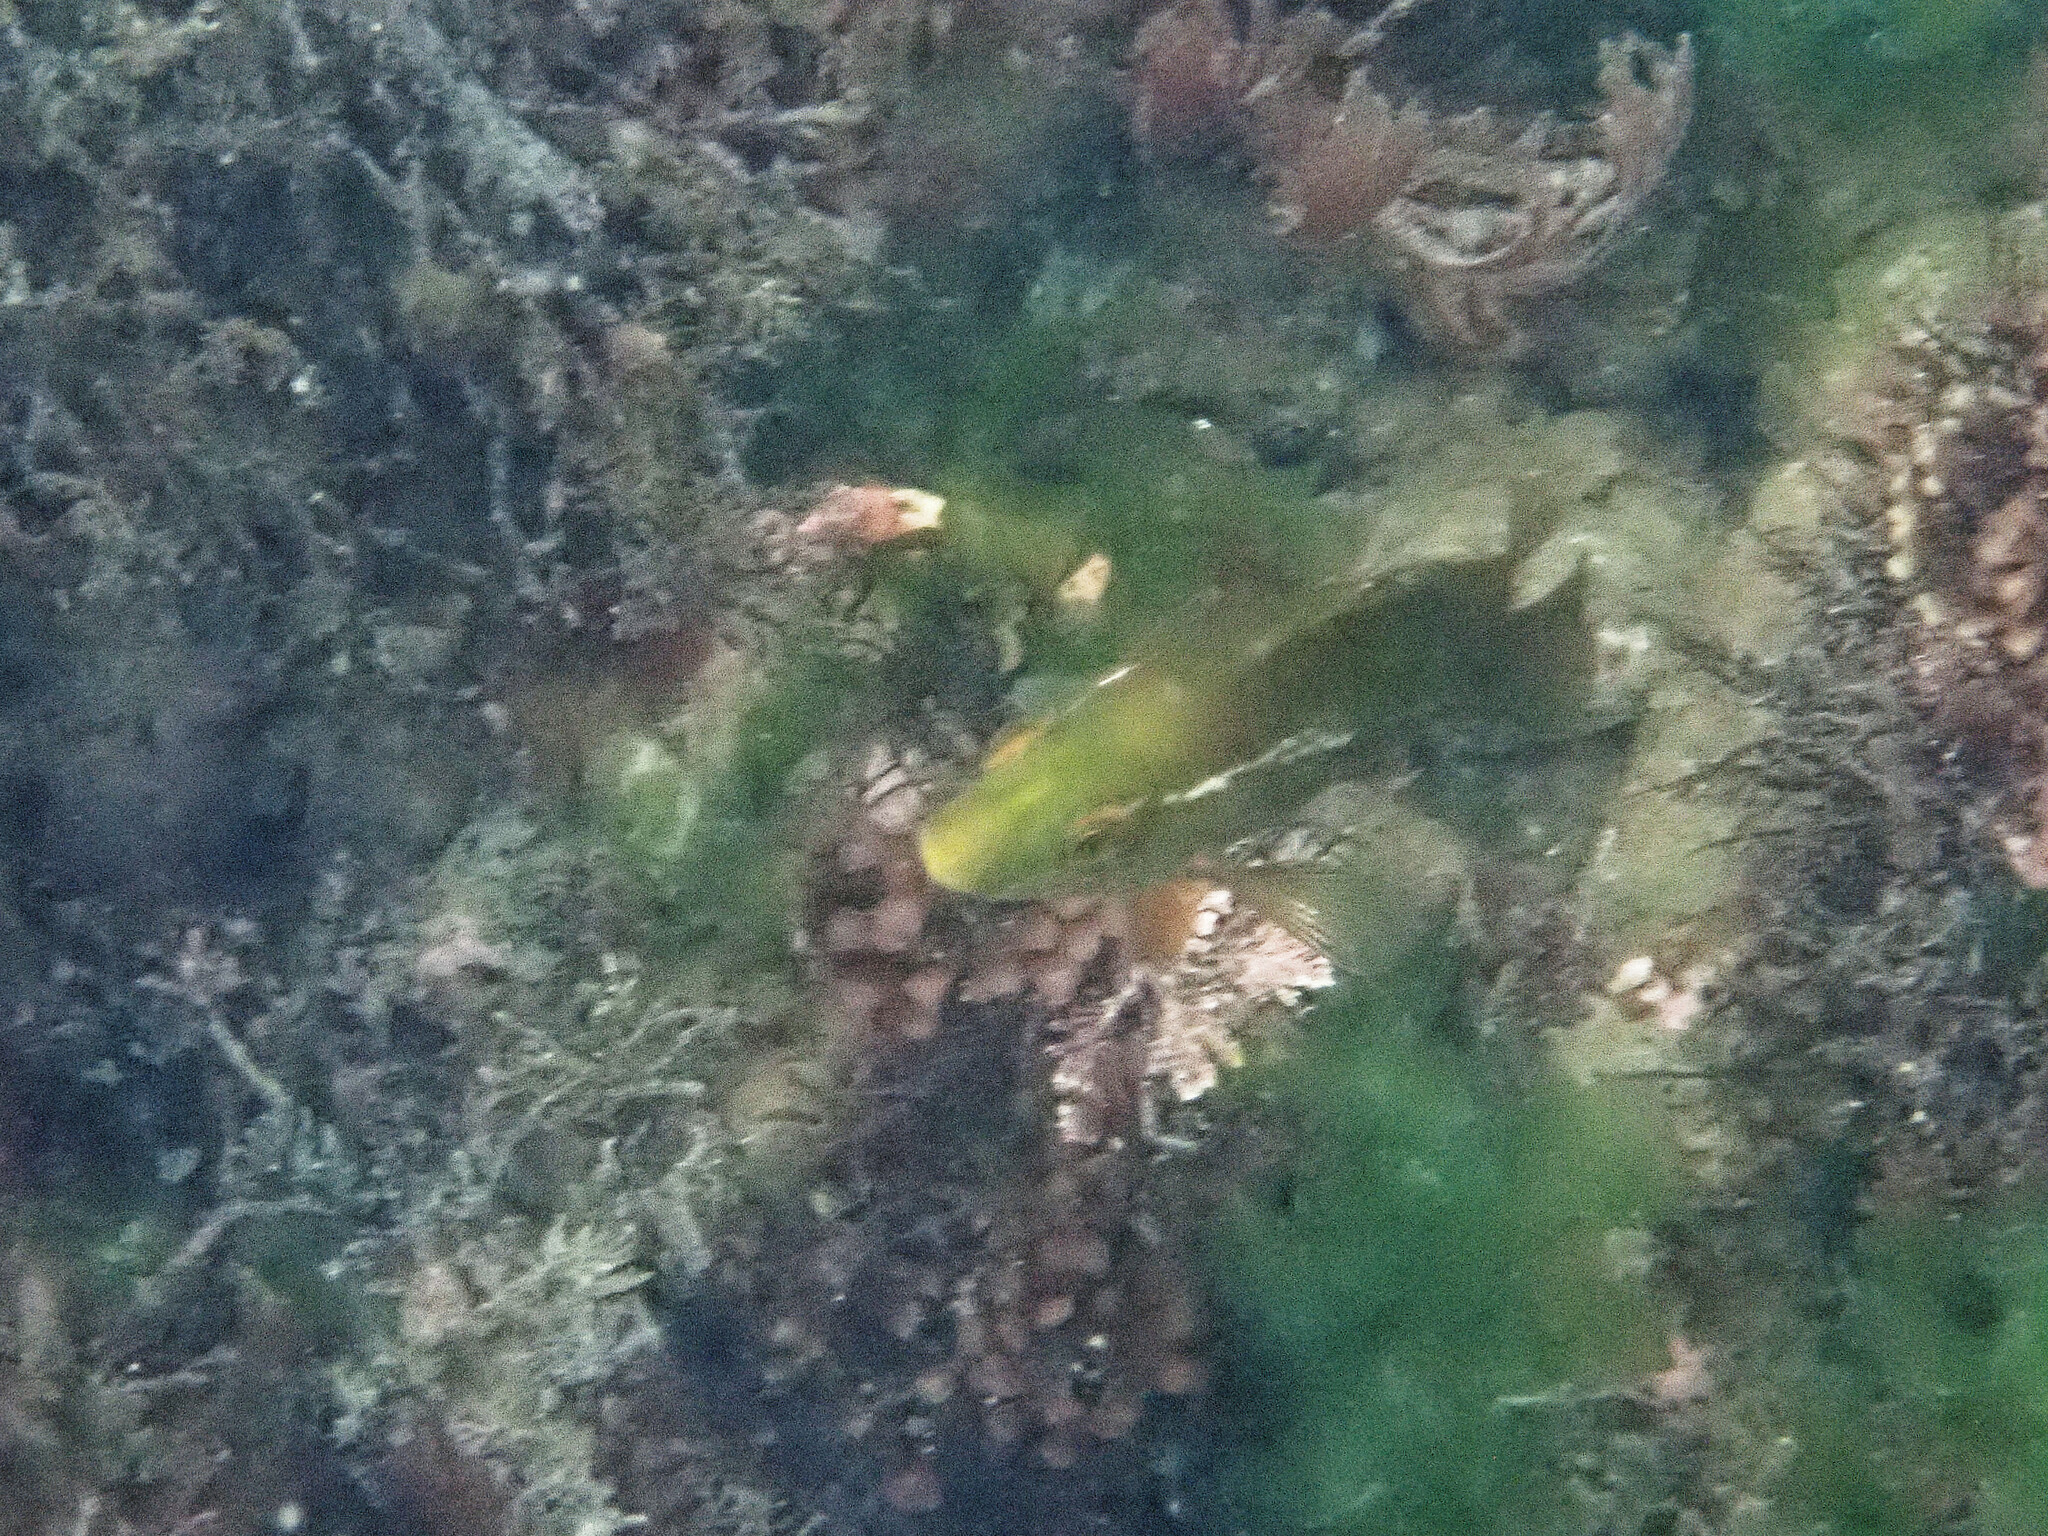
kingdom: Animalia
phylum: Chordata
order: Perciformes
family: Labridae
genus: Labrus
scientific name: Labrus bergylta
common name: Ballan wrasse
